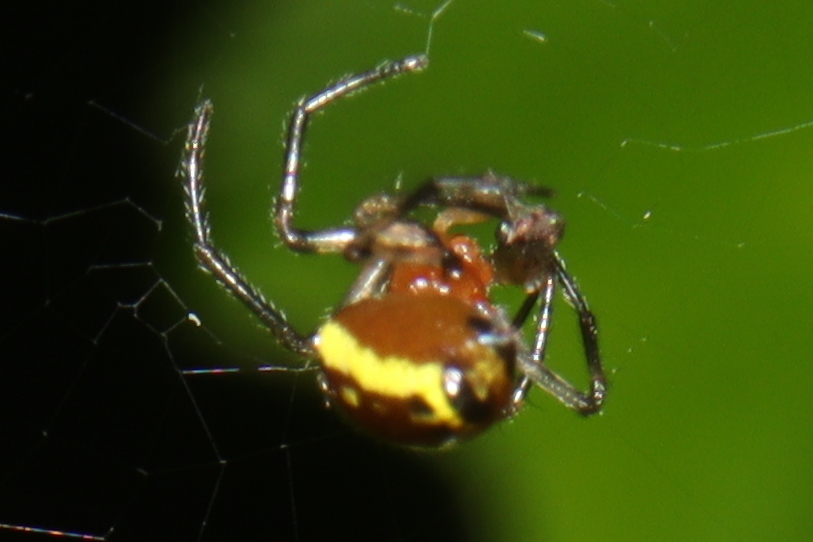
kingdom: Animalia
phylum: Arthropoda
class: Arachnida
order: Araneae
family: Araneidae
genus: Alpaida
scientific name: Alpaida tuonabo
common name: Orb weavers
